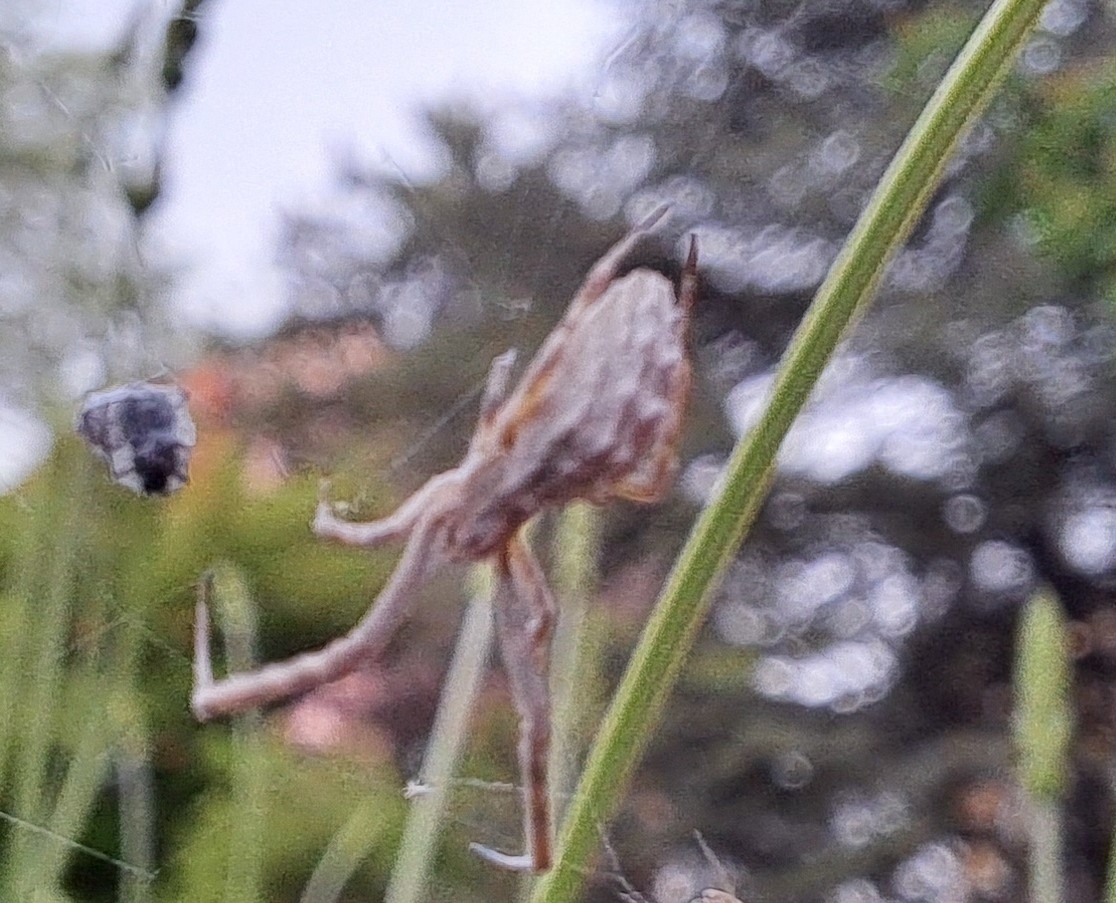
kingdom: Animalia
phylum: Arthropoda
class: Arachnida
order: Araneae
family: Uloboridae
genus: Uloborus
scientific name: Uloborus walckenaerius
